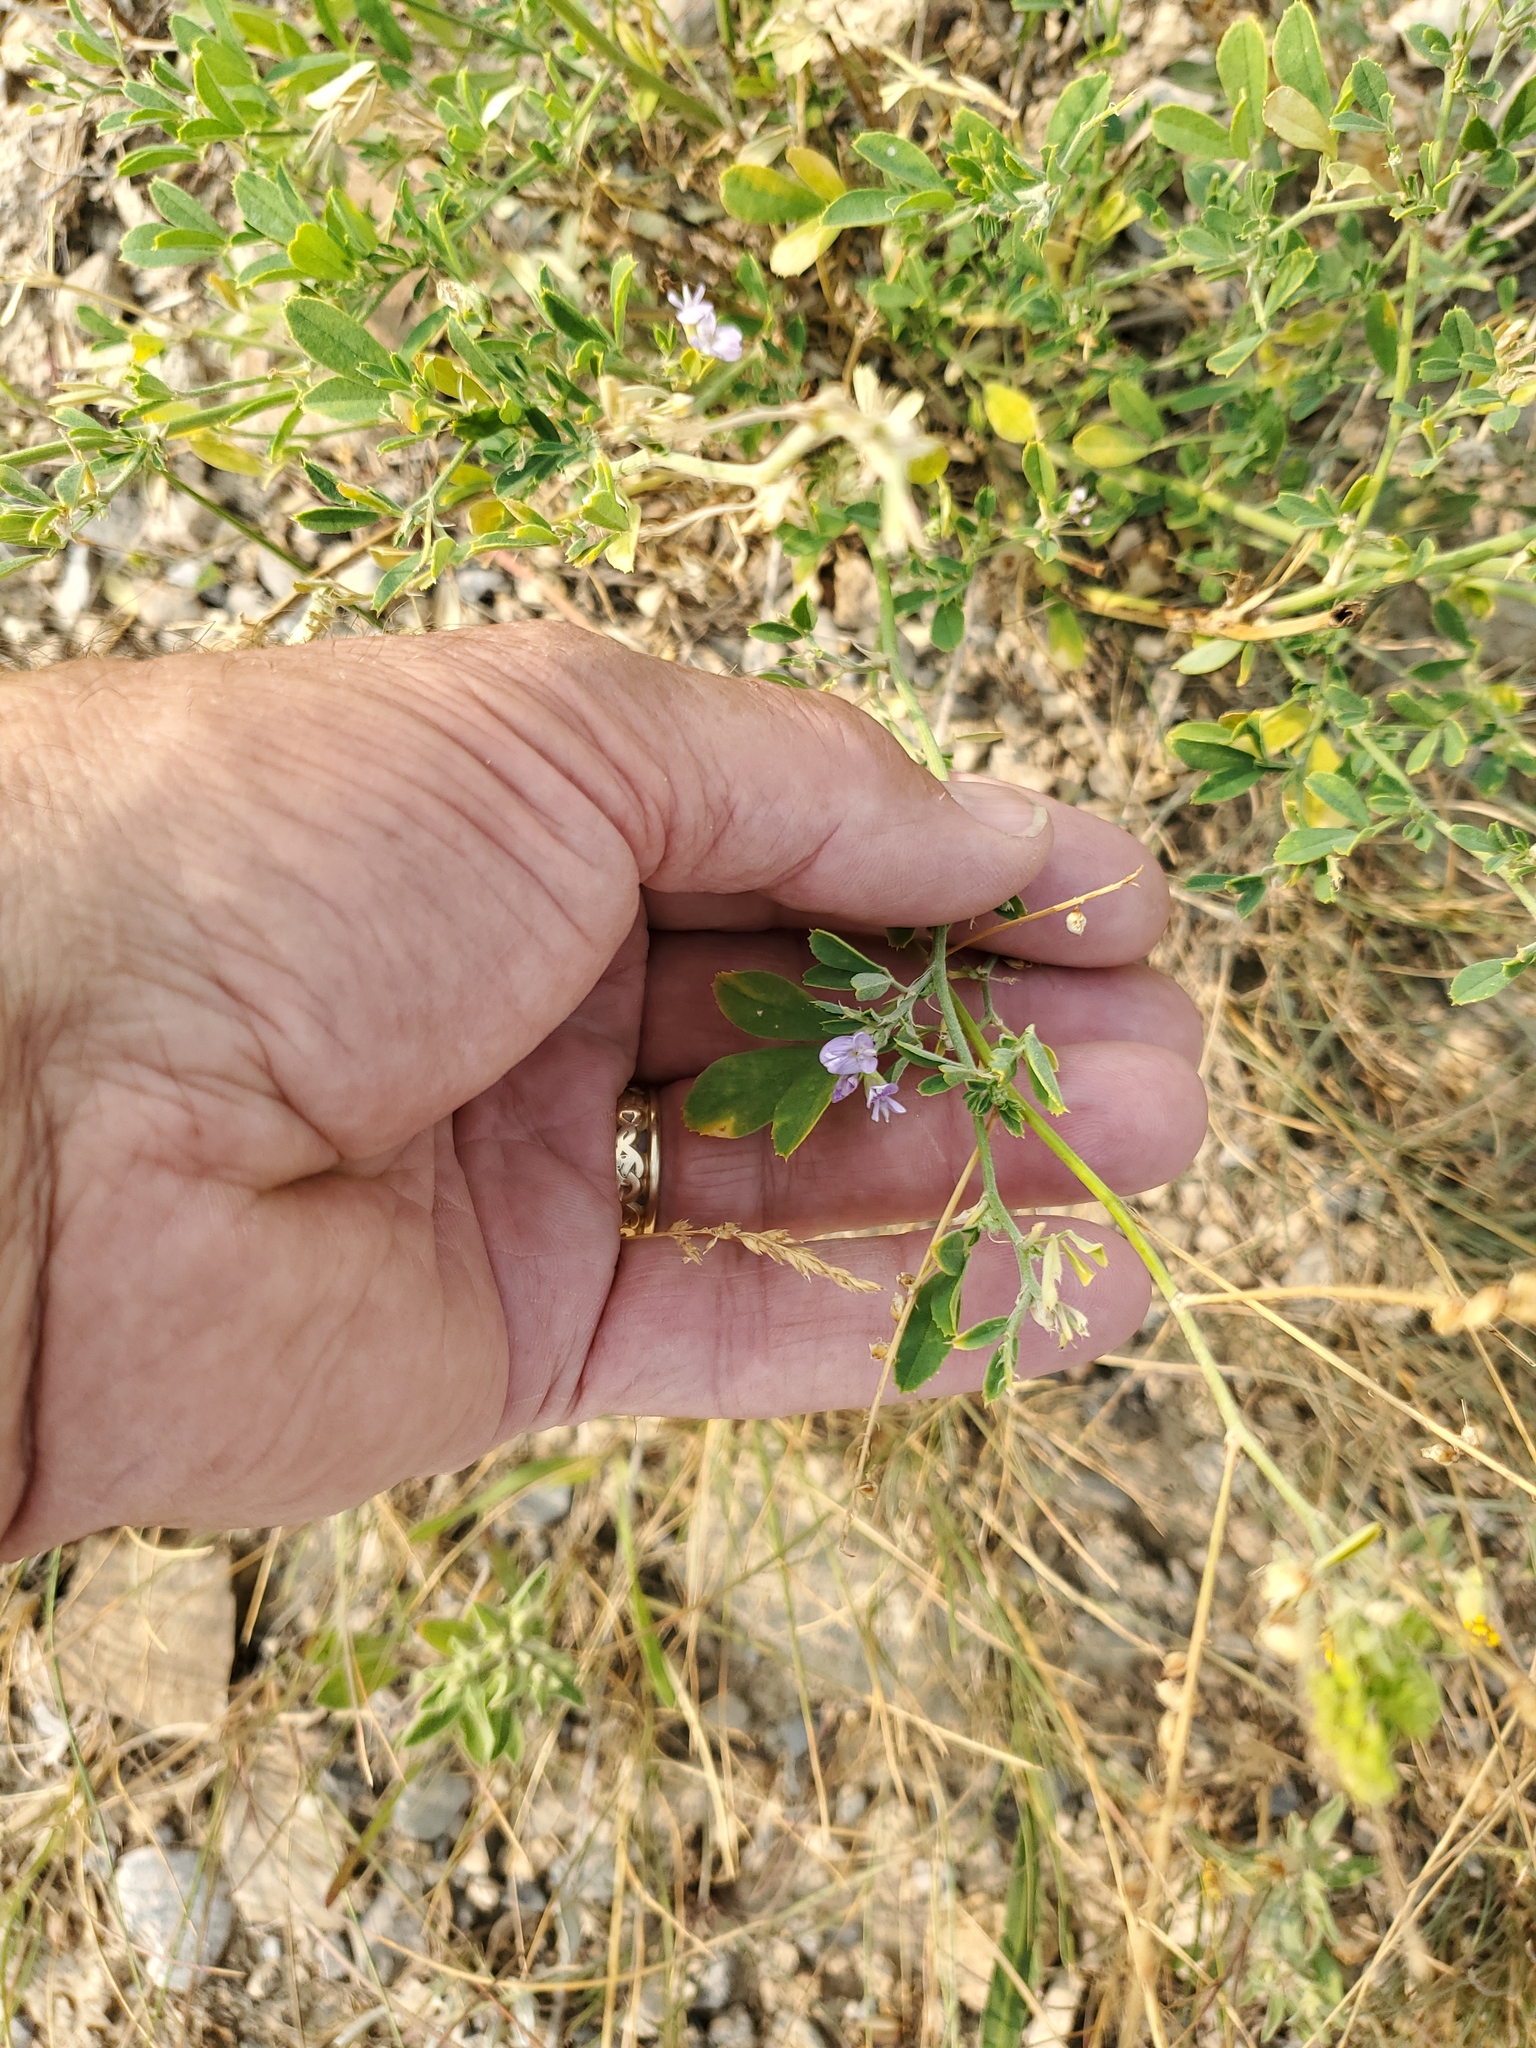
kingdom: Plantae
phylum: Tracheophyta
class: Magnoliopsida
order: Fabales
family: Fabaceae
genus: Medicago
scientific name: Medicago sativa
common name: Alfalfa
